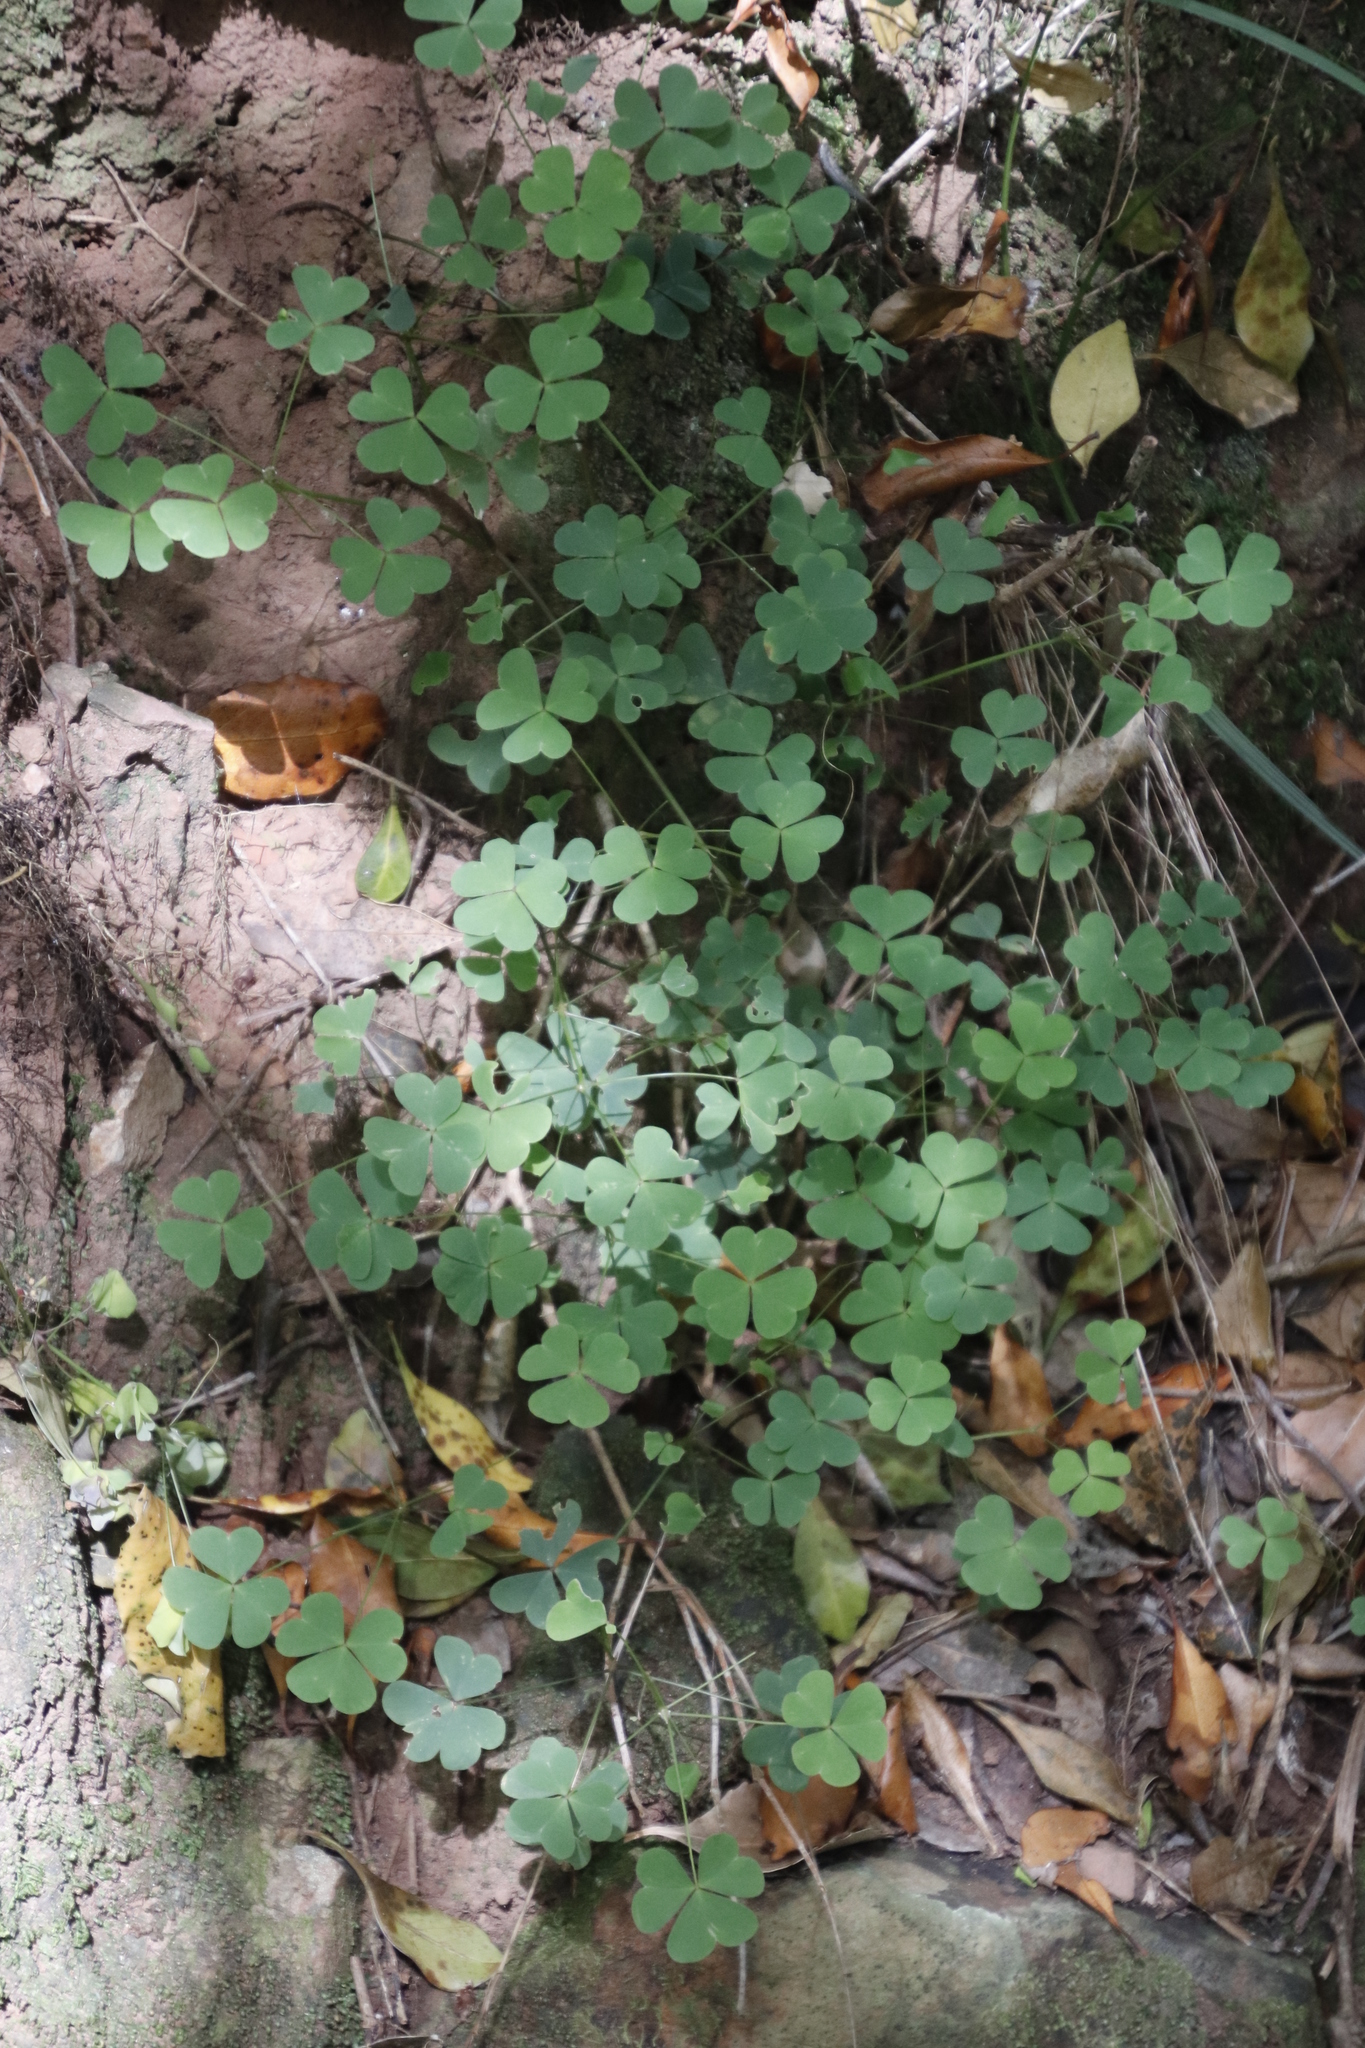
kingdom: Plantae
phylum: Tracheophyta
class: Magnoliopsida
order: Oxalidales
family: Oxalidaceae
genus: Oxalis
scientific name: Oxalis incarnata
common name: Pale pink-sorrel
